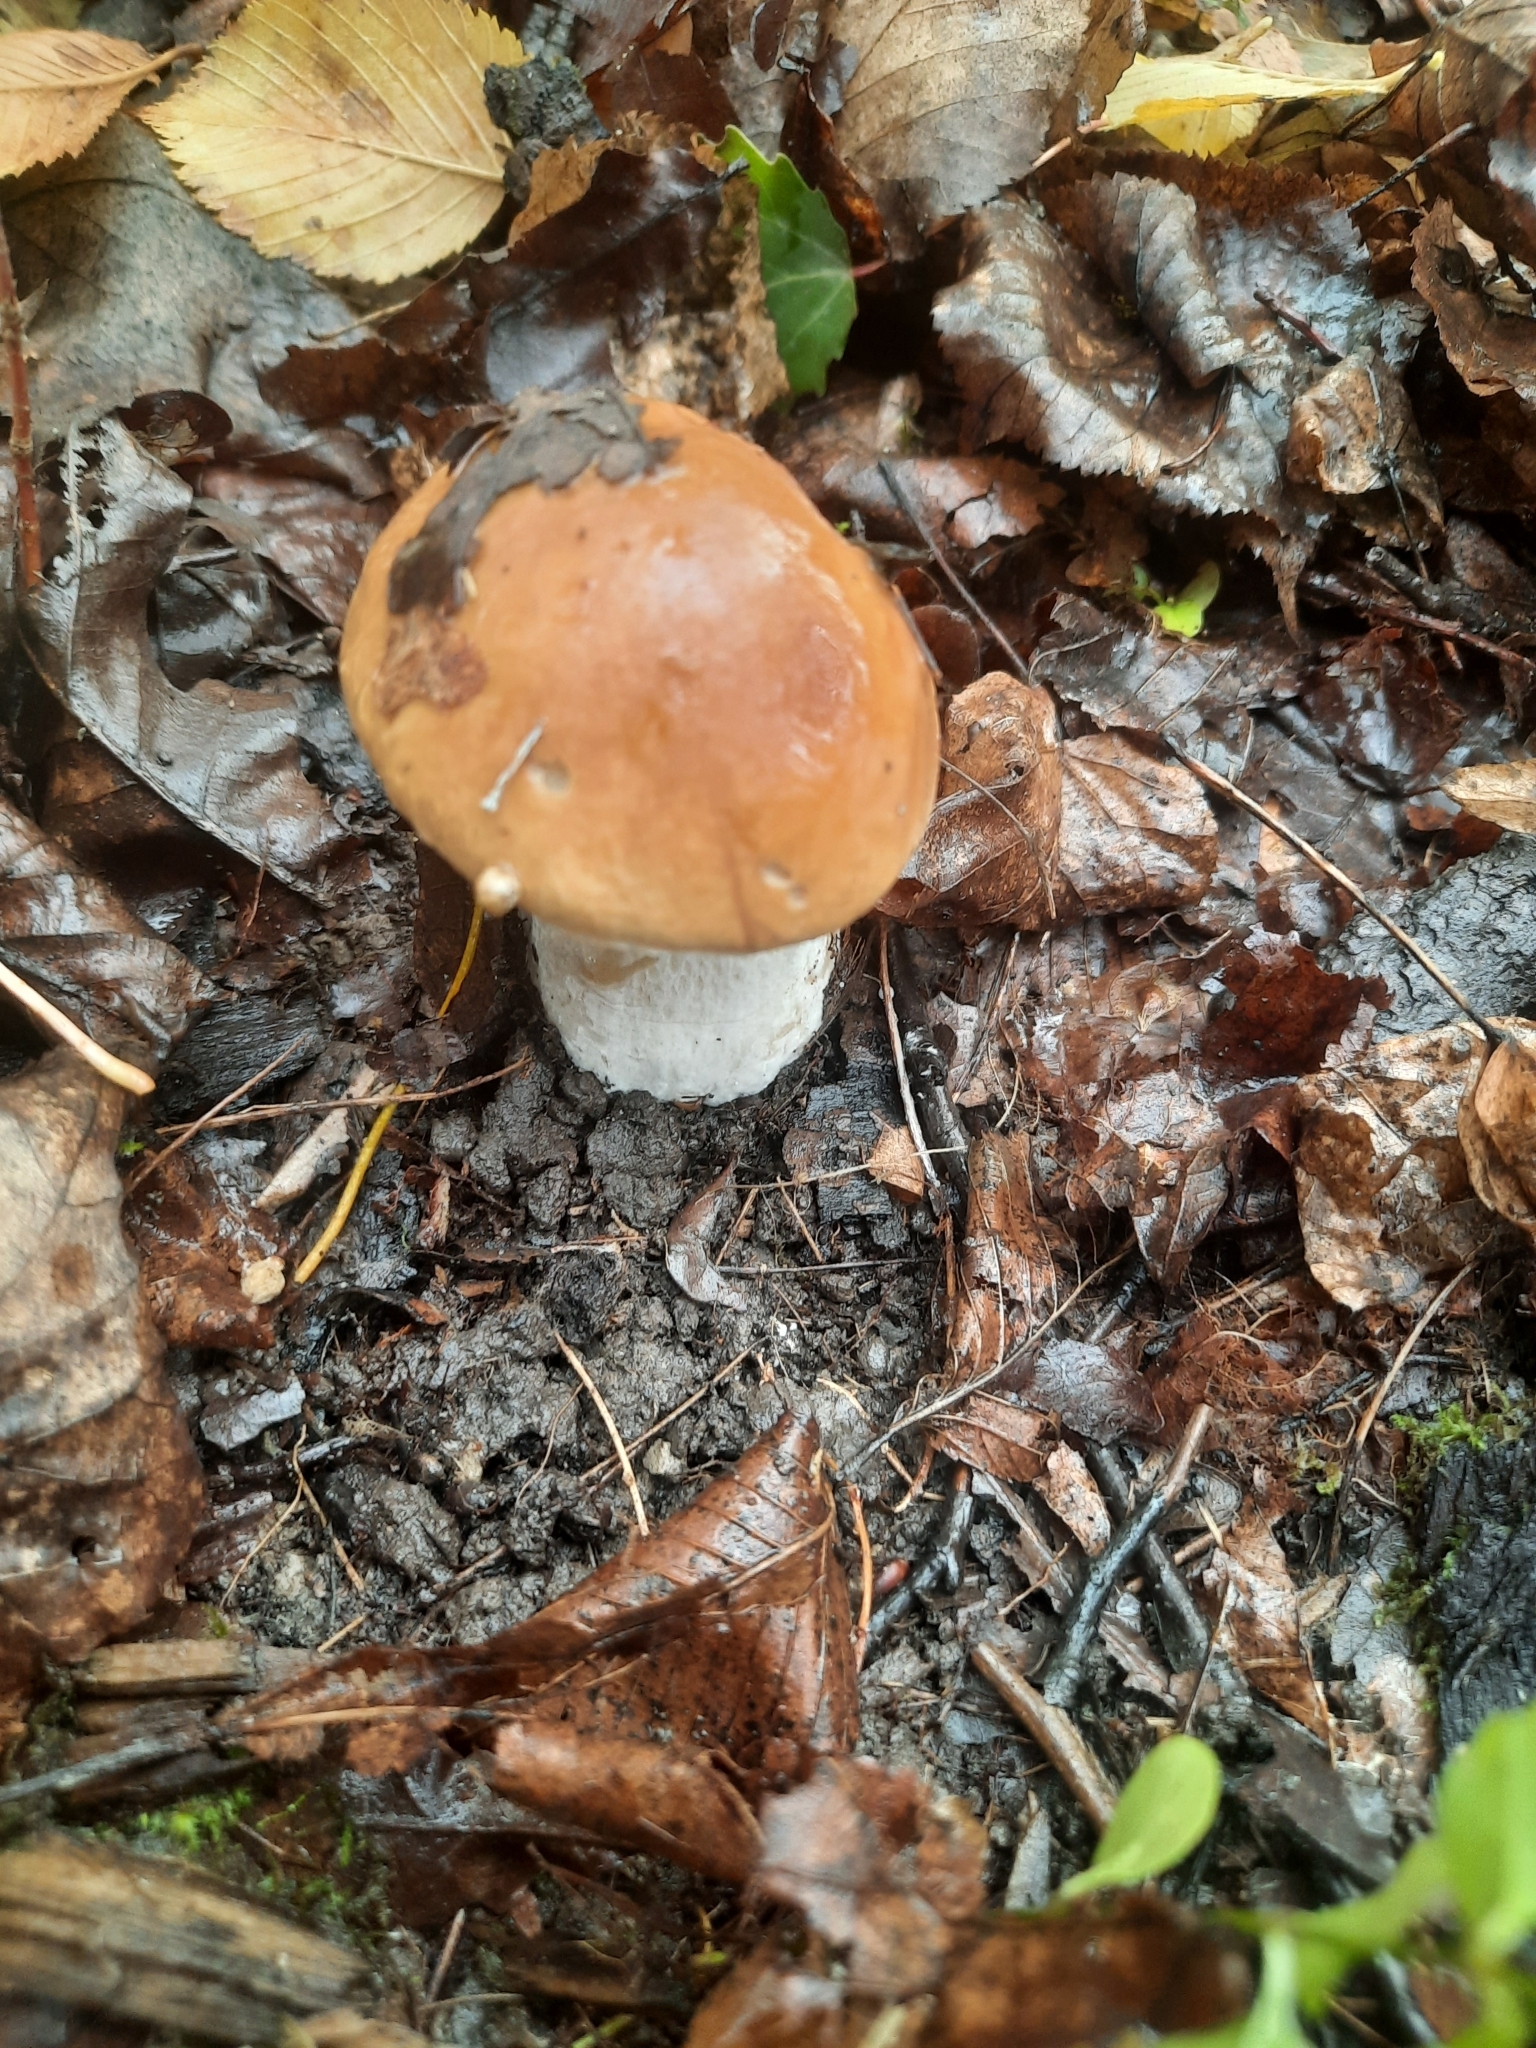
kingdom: Fungi
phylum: Basidiomycota
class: Agaricomycetes
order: Boletales
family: Boletaceae
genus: Boletus
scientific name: Boletus edulis
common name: Cep
